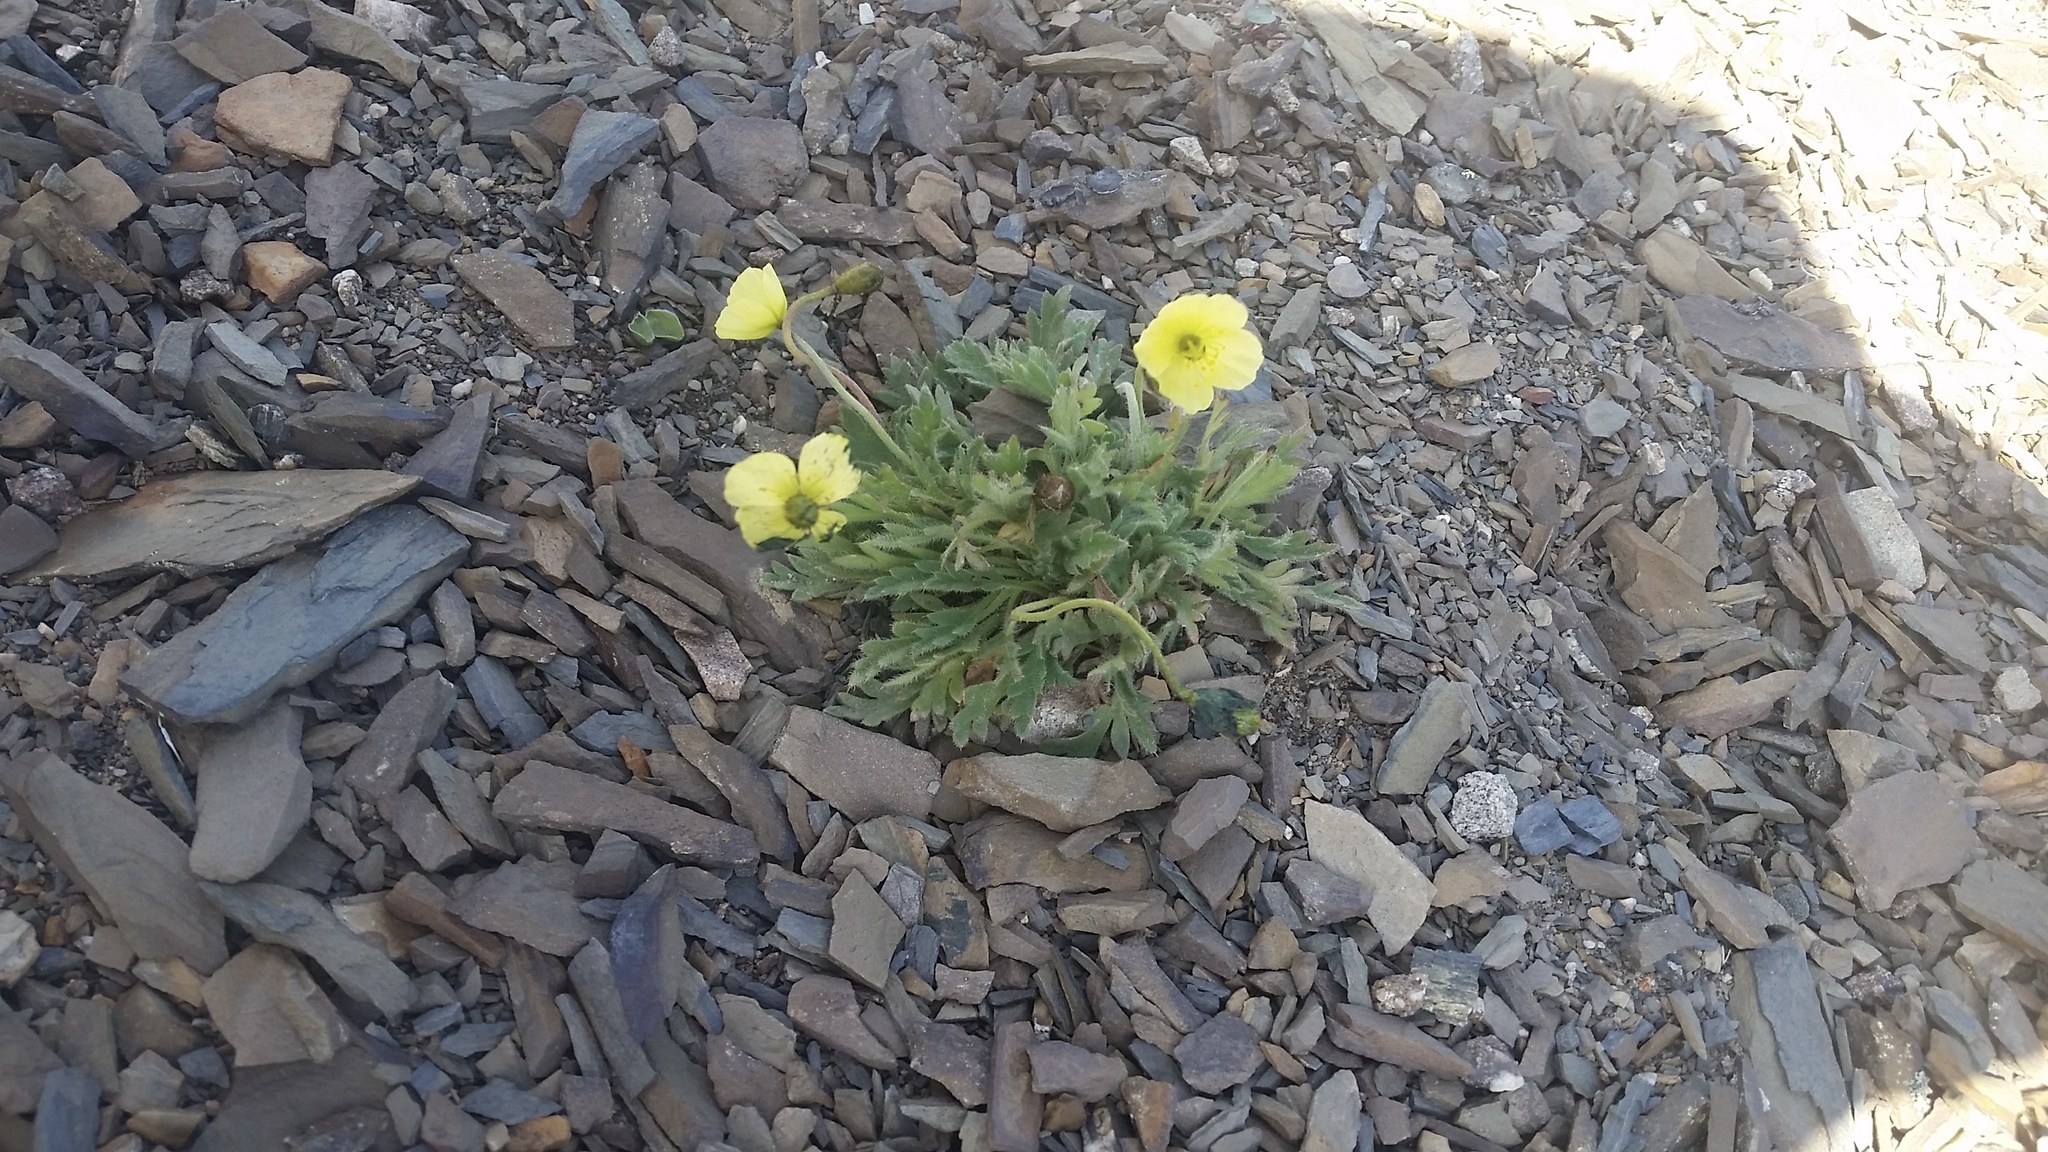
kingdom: Plantae
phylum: Tracheophyta
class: Magnoliopsida
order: Ranunculales
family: Papaveraceae
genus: Papaver
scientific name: Papaver radicatum
